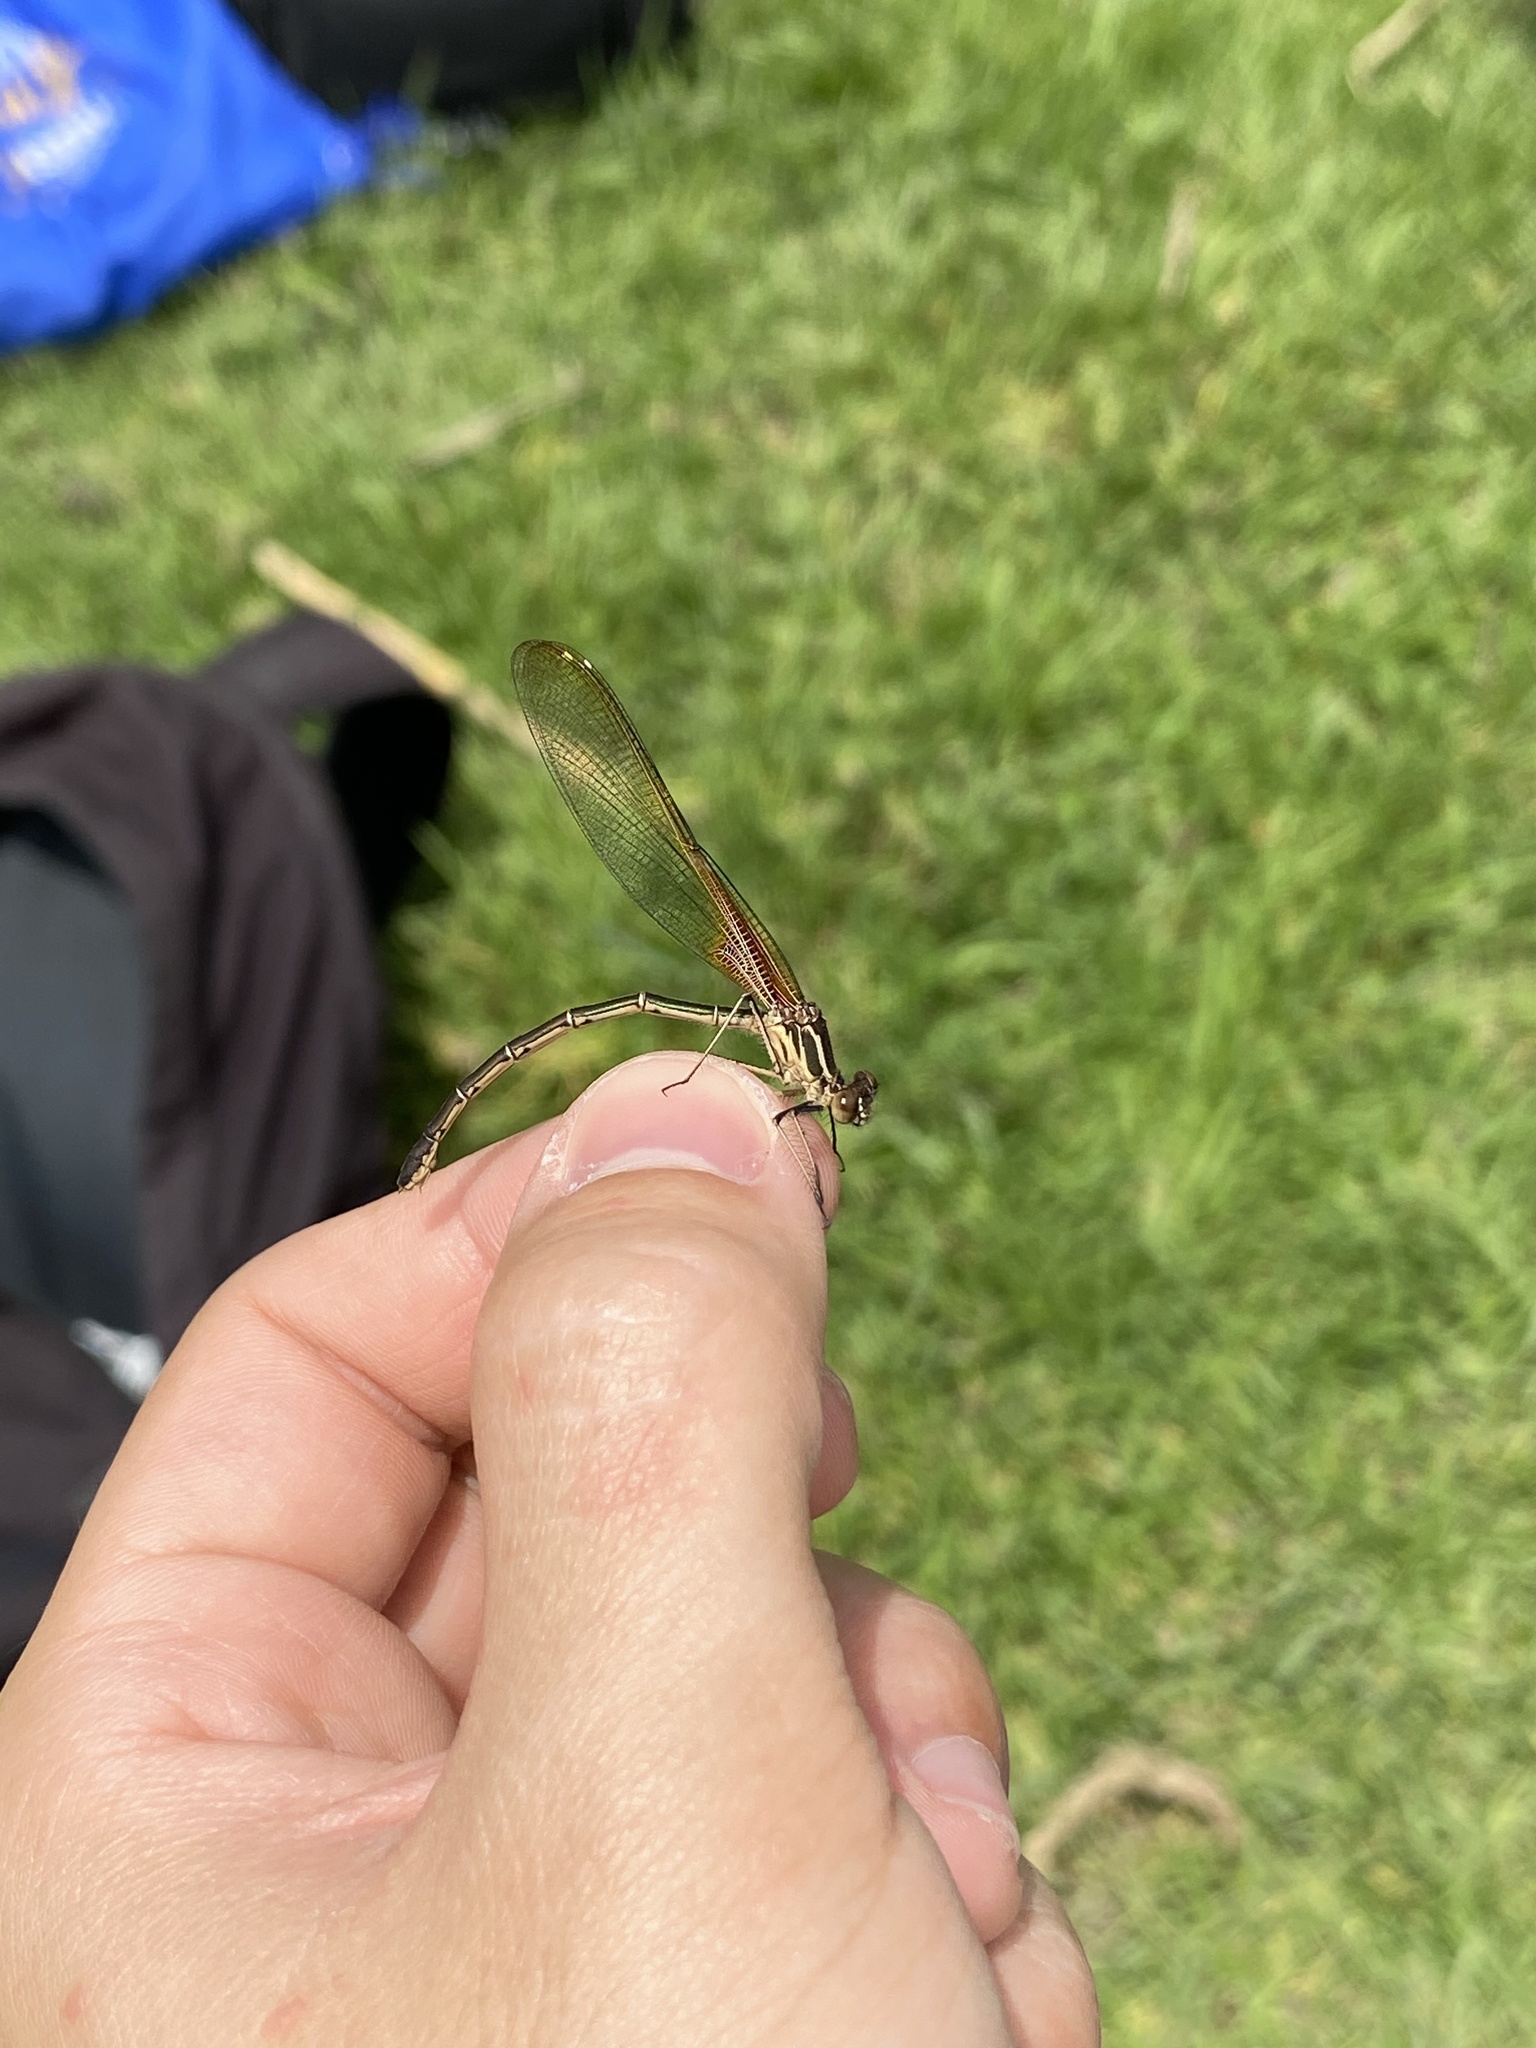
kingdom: Animalia
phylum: Arthropoda
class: Insecta
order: Odonata
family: Calopterygidae
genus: Hetaerina
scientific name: Hetaerina americana
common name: American rubyspot
